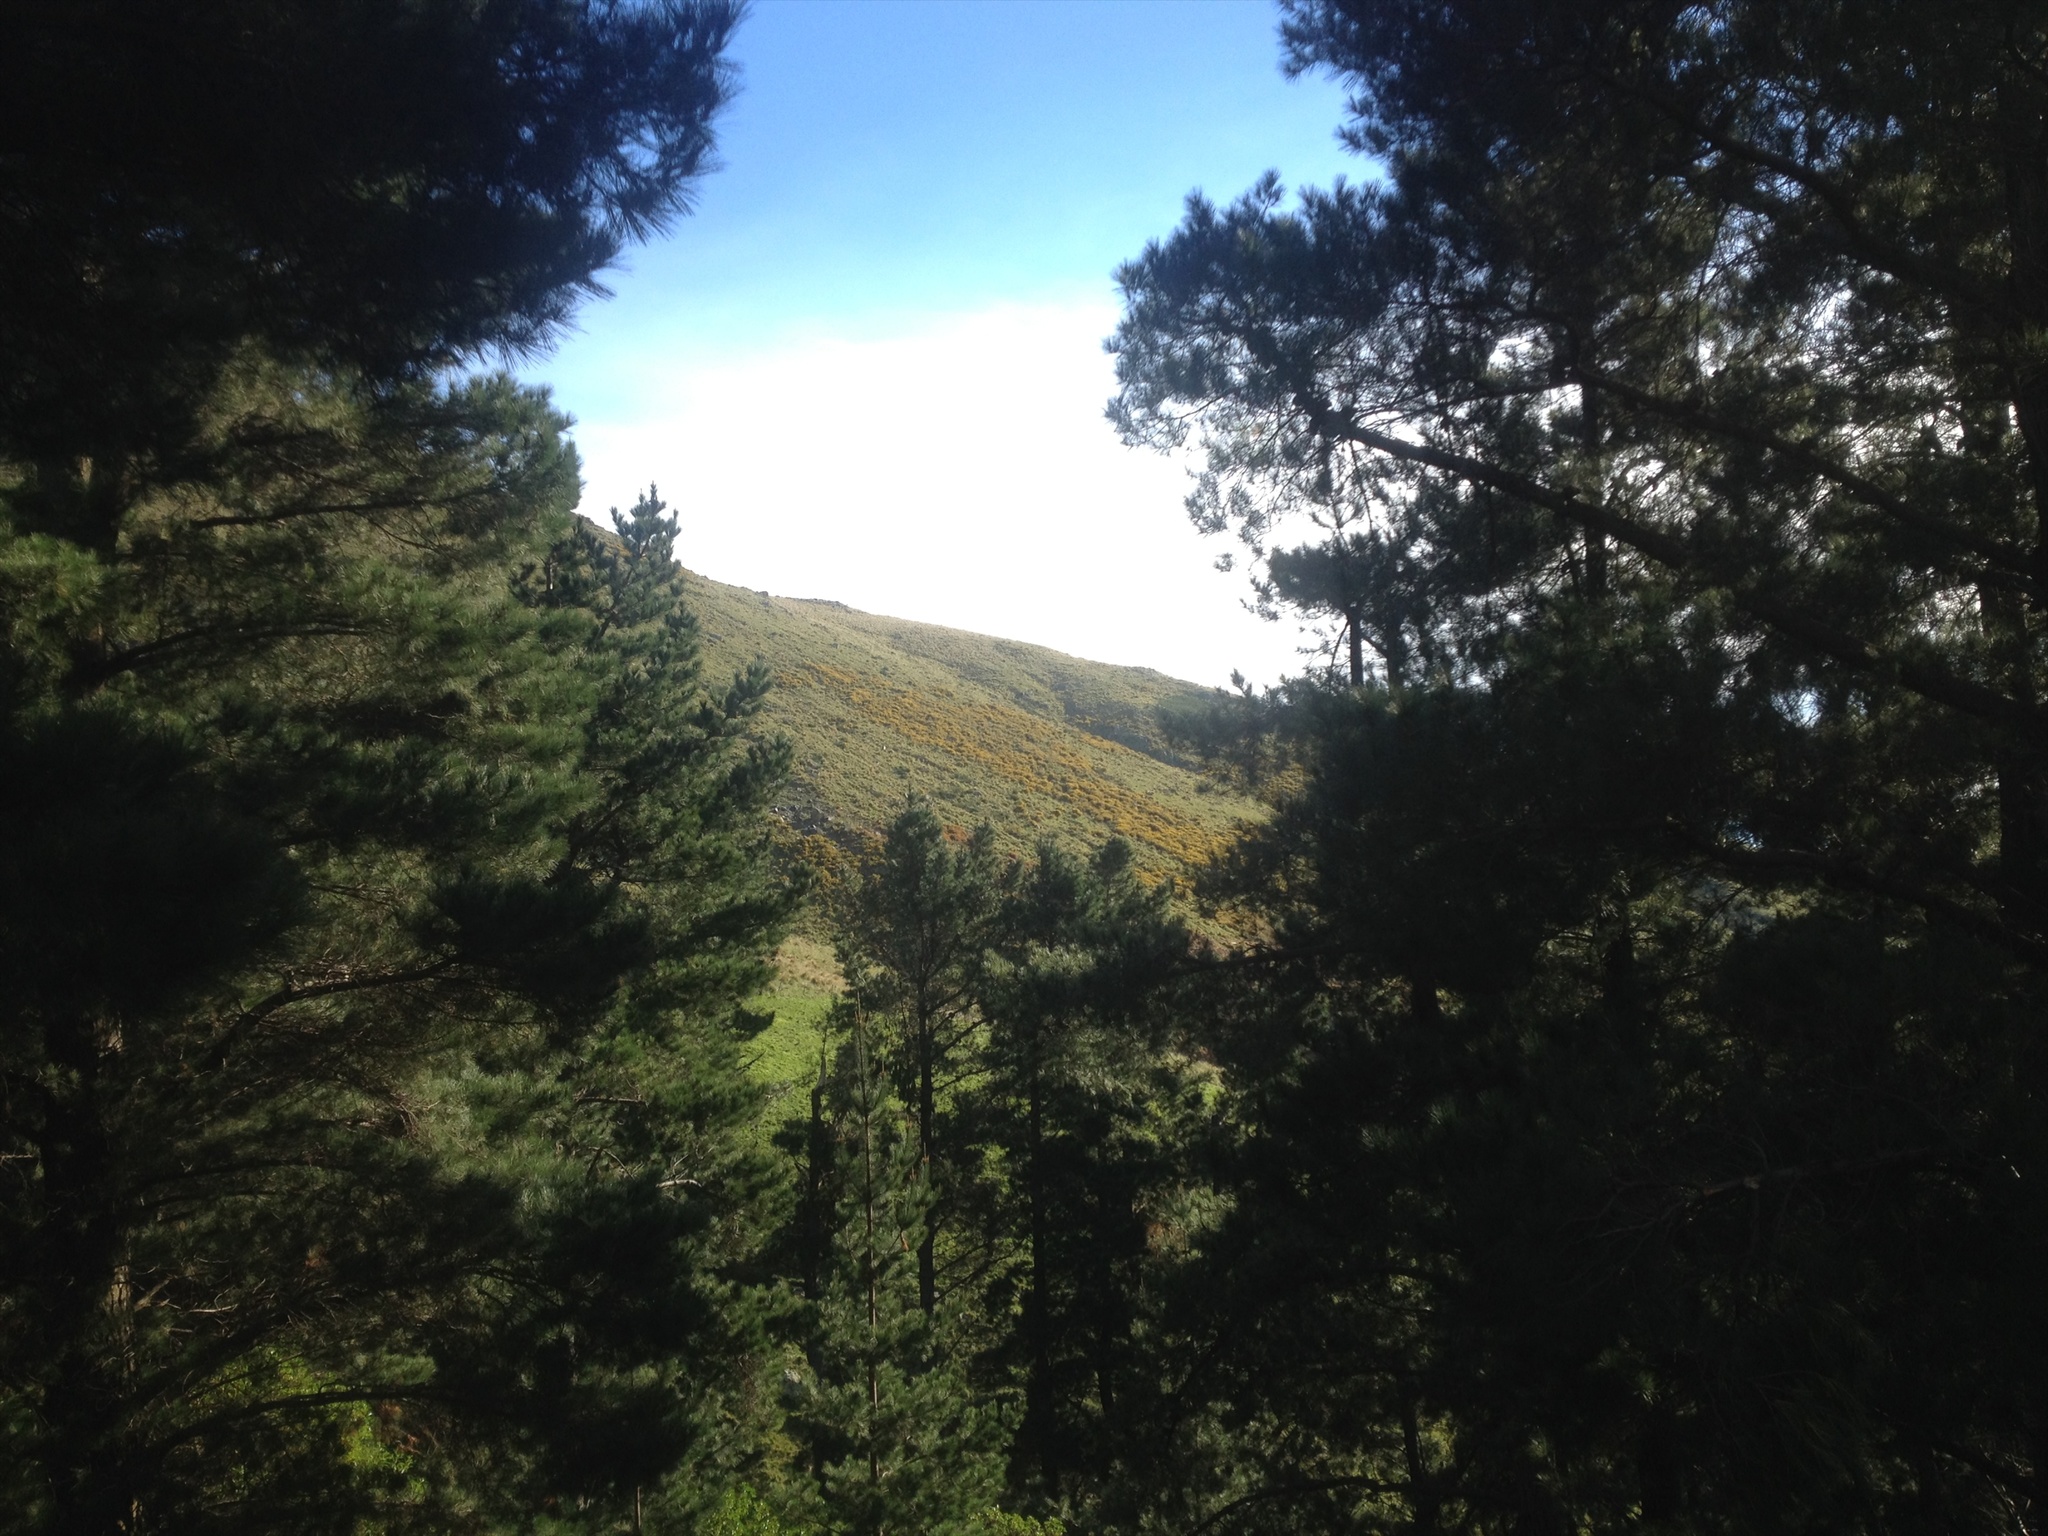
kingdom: Plantae
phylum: Tracheophyta
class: Magnoliopsida
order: Fabales
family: Fabaceae
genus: Ulex
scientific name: Ulex europaeus
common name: Common gorse
